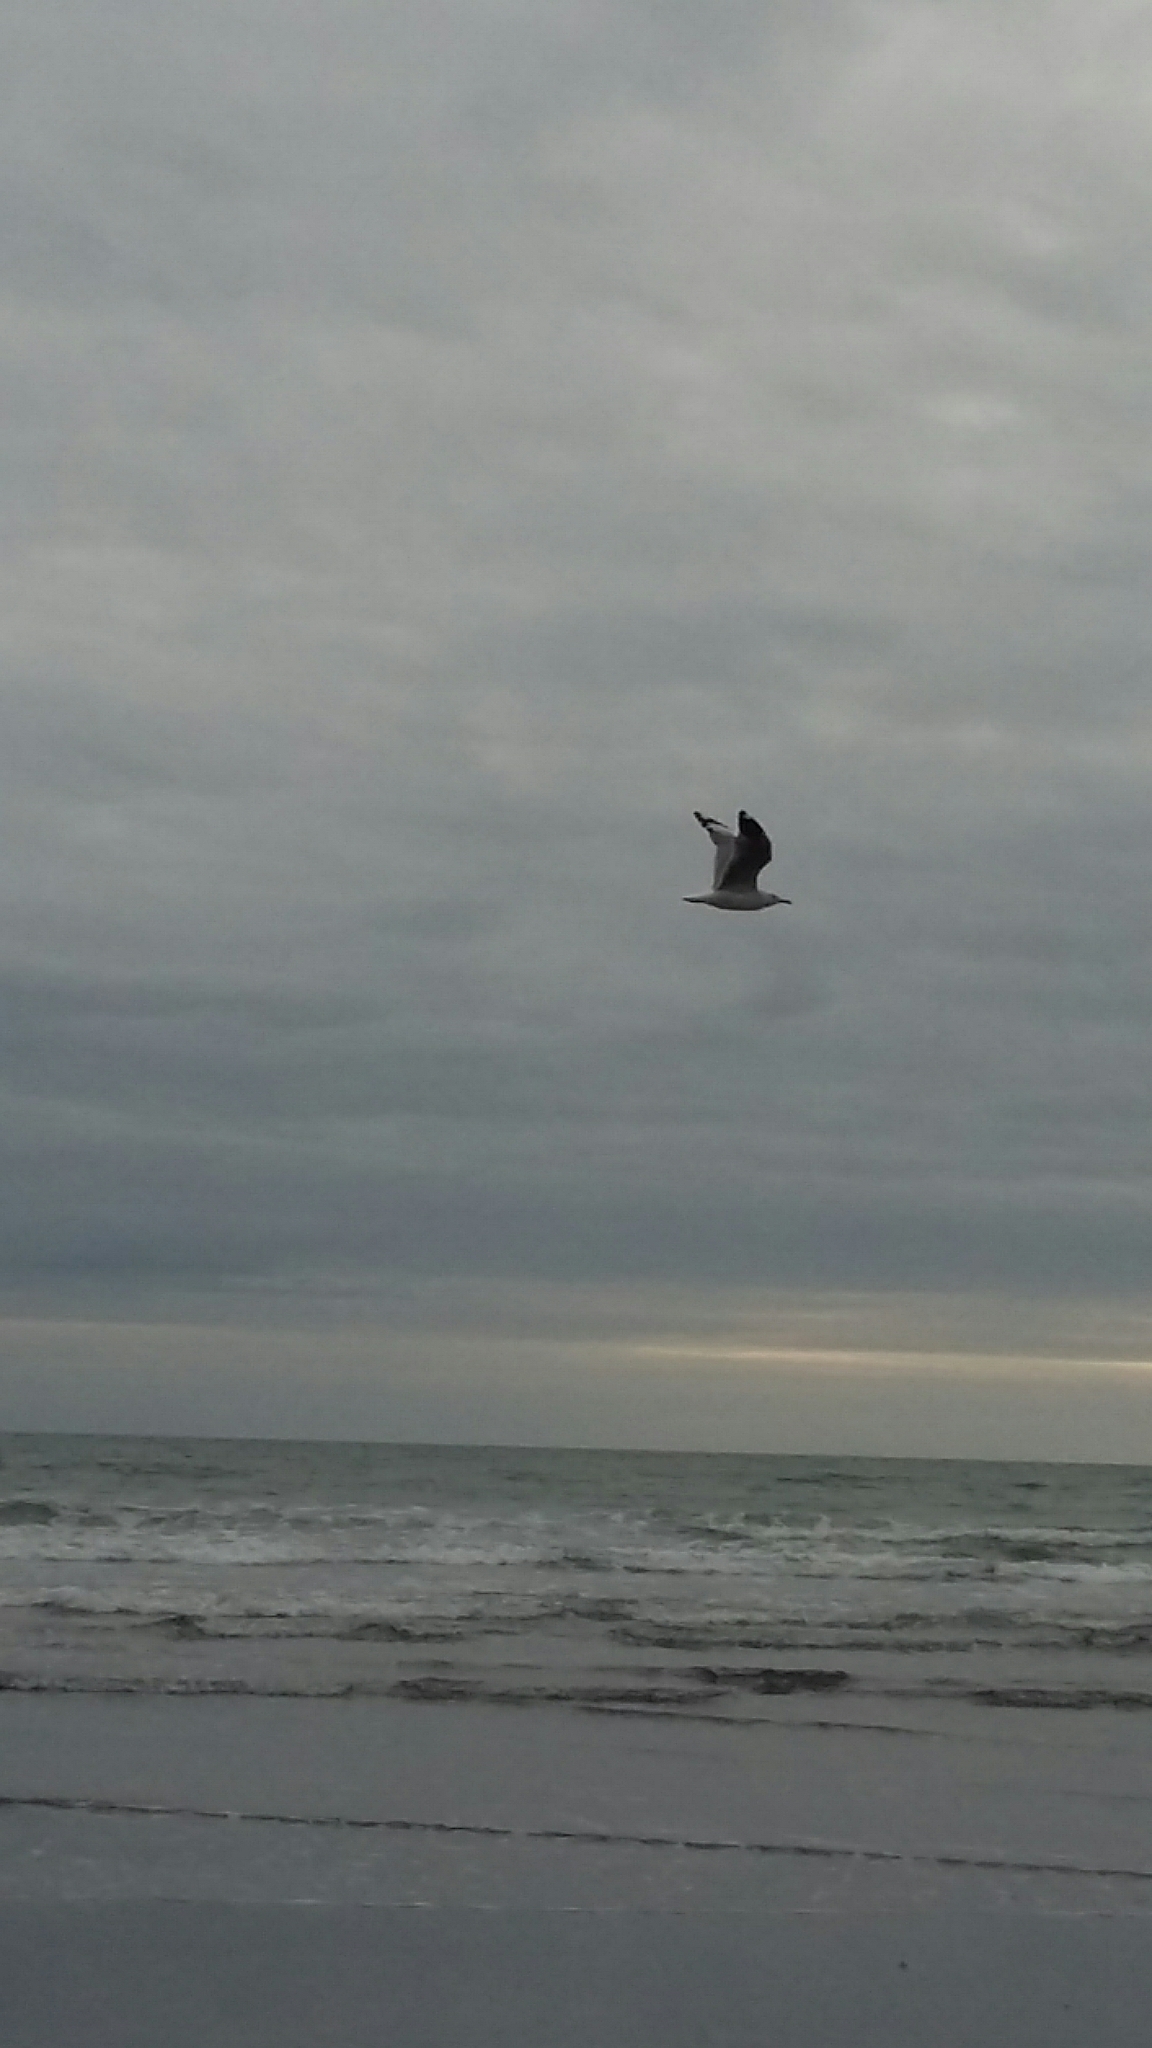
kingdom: Animalia
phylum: Chordata
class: Aves
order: Charadriiformes
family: Laridae
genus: Chroicocephalus
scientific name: Chroicocephalus novaehollandiae
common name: Silver gull
